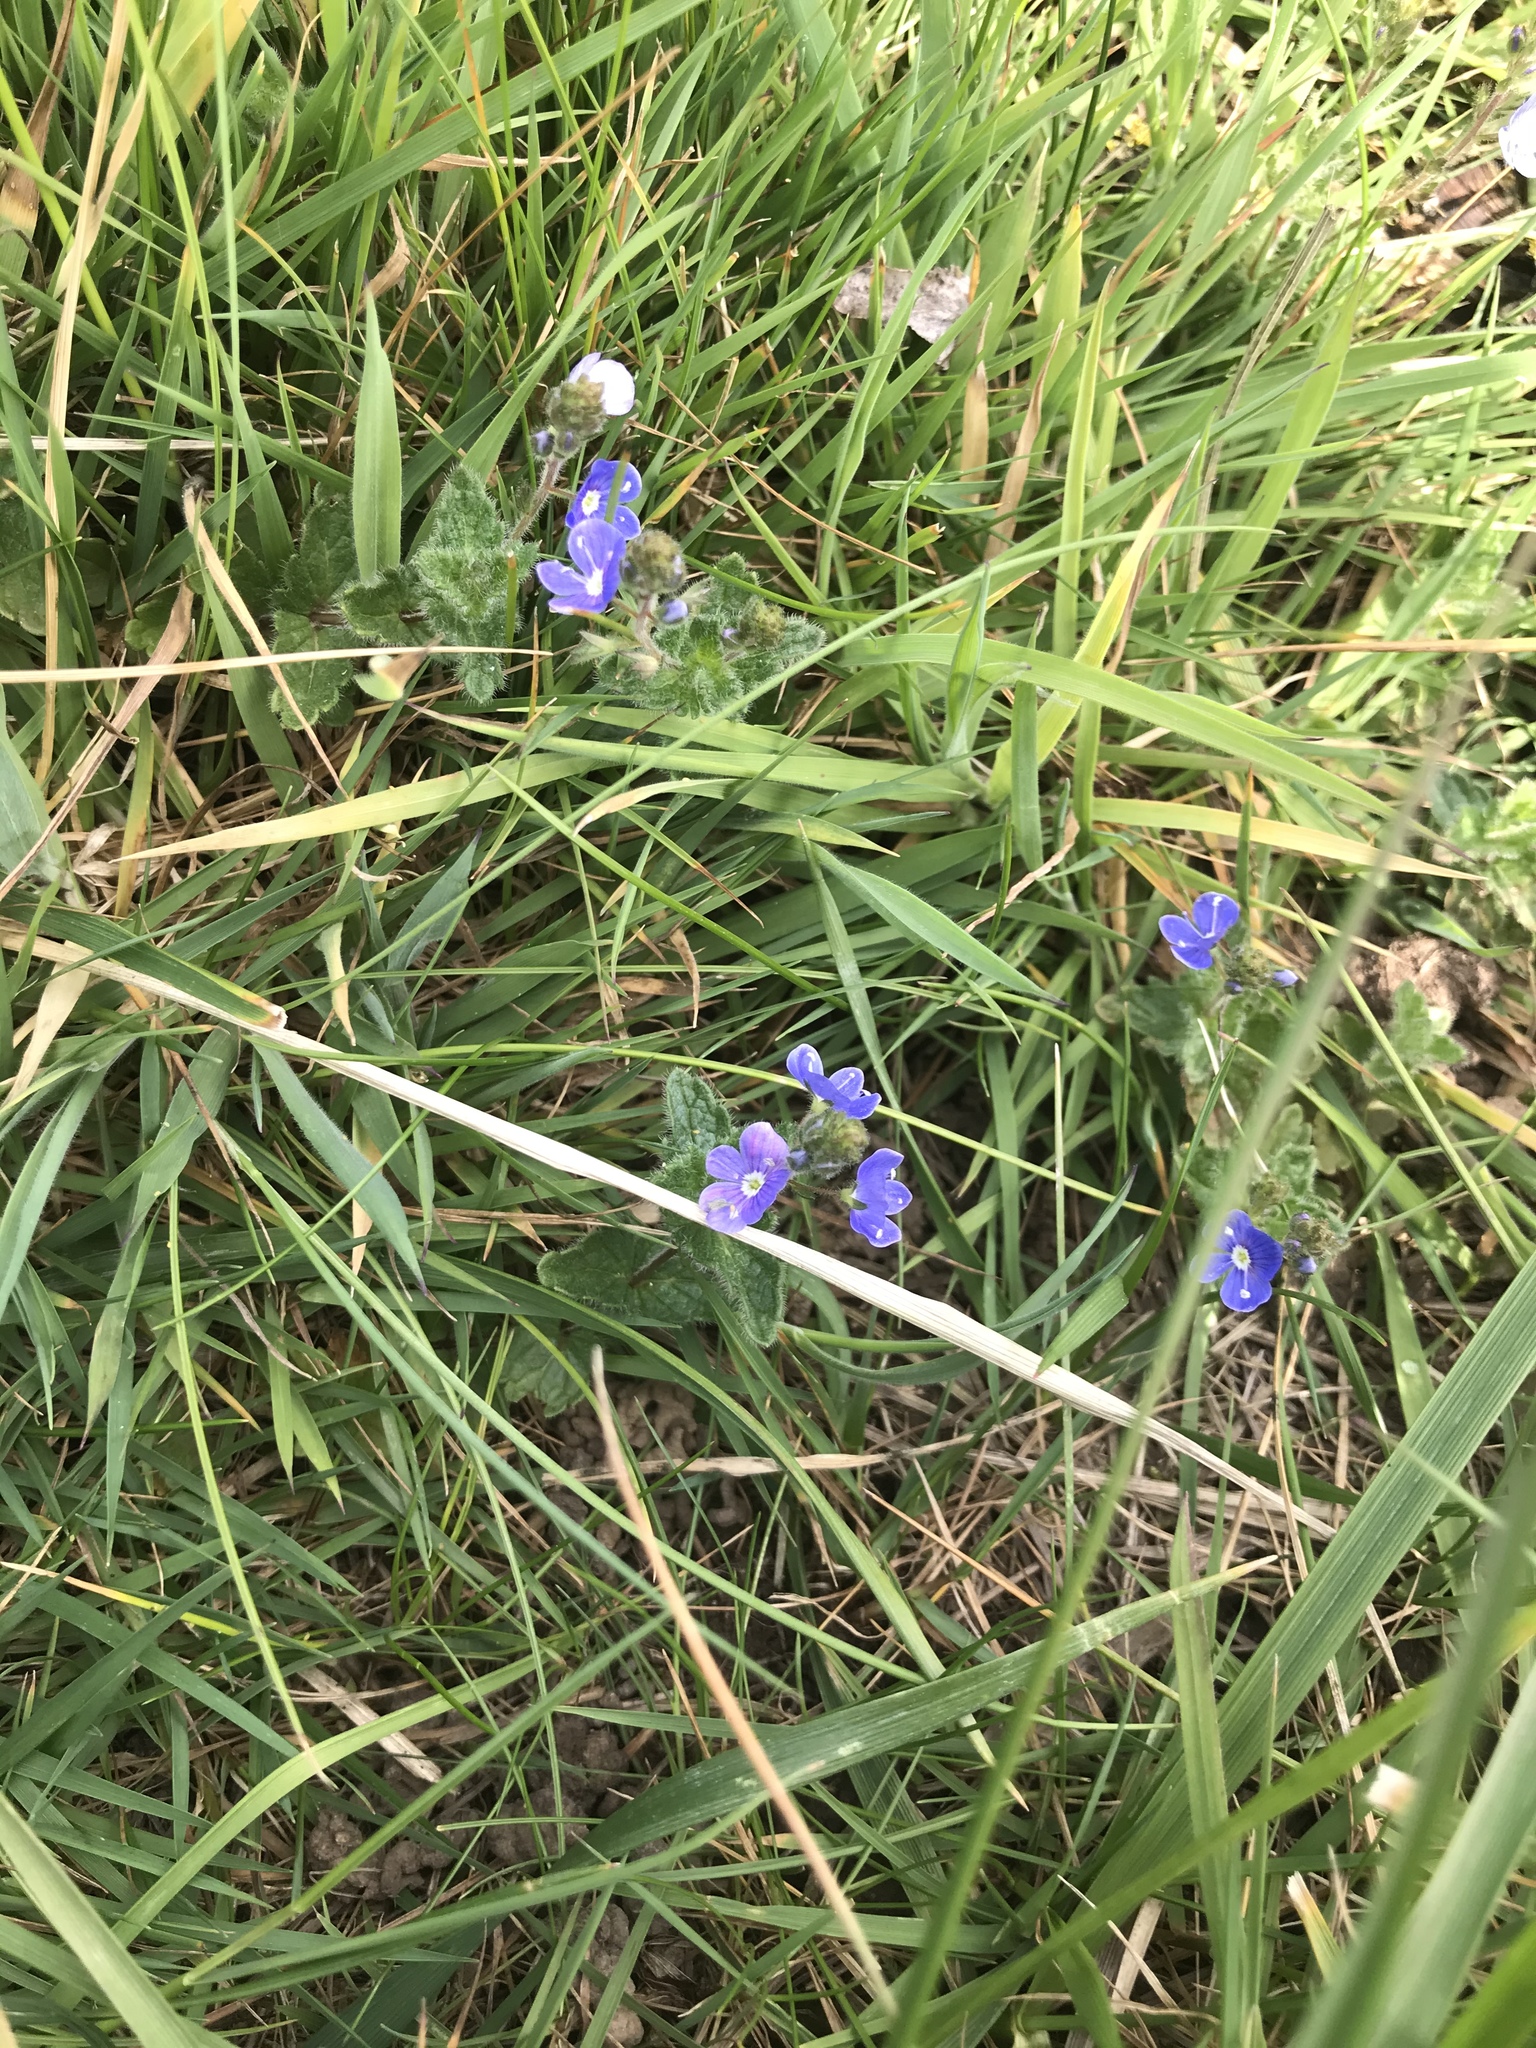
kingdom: Plantae
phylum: Tracheophyta
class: Magnoliopsida
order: Lamiales
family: Plantaginaceae
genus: Veronica
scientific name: Veronica chamaedrys
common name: Germander speedwell
